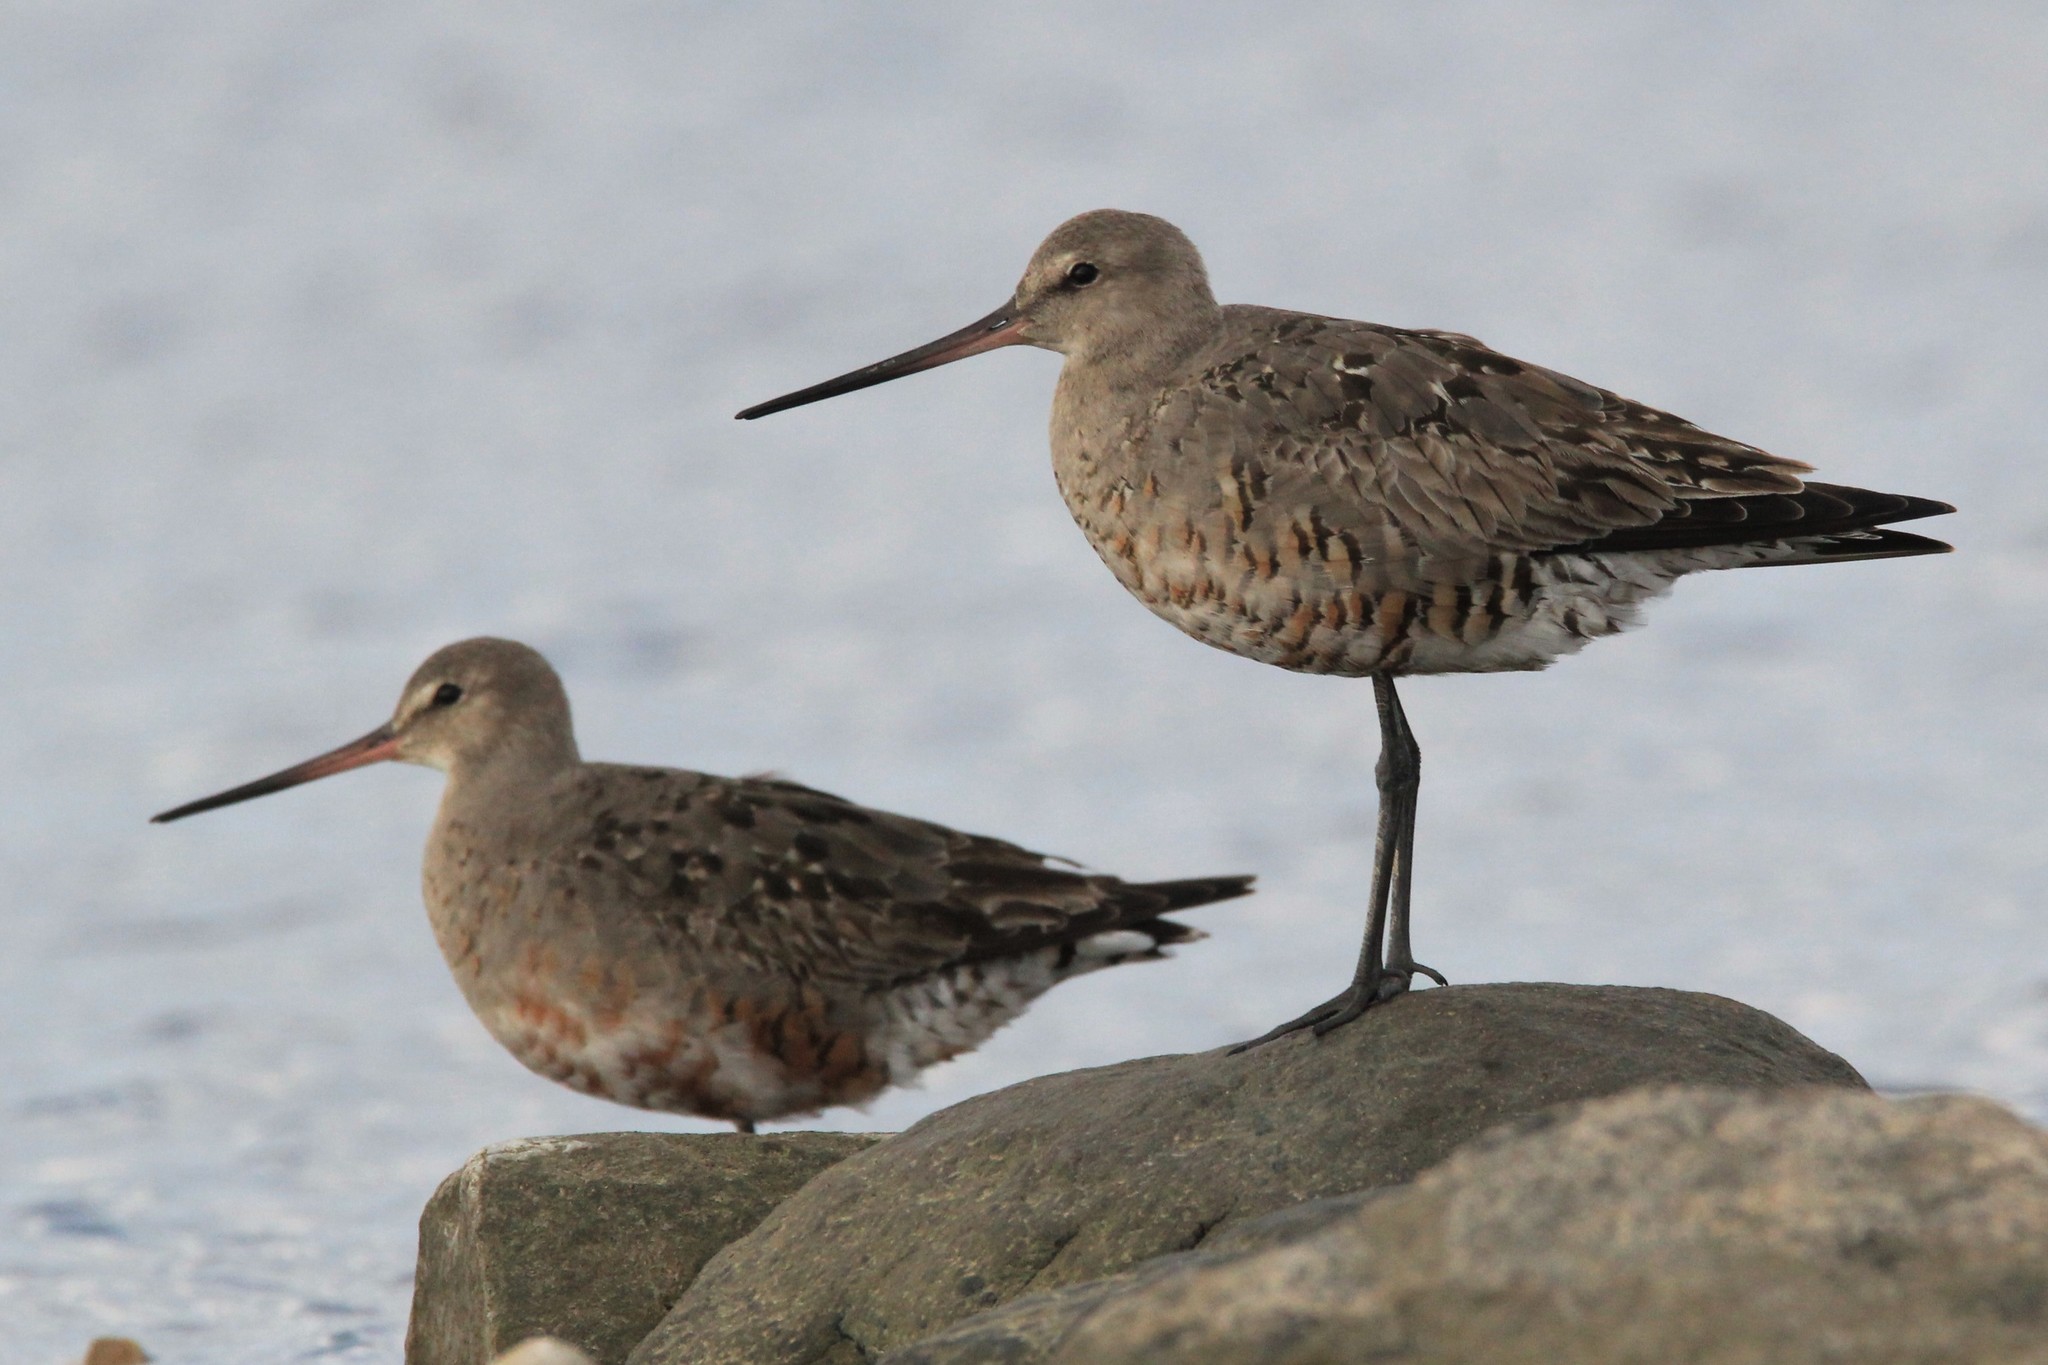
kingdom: Animalia
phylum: Chordata
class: Aves
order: Charadriiformes
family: Scolopacidae
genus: Limosa
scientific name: Limosa haemastica
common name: Hudsonian godwit
